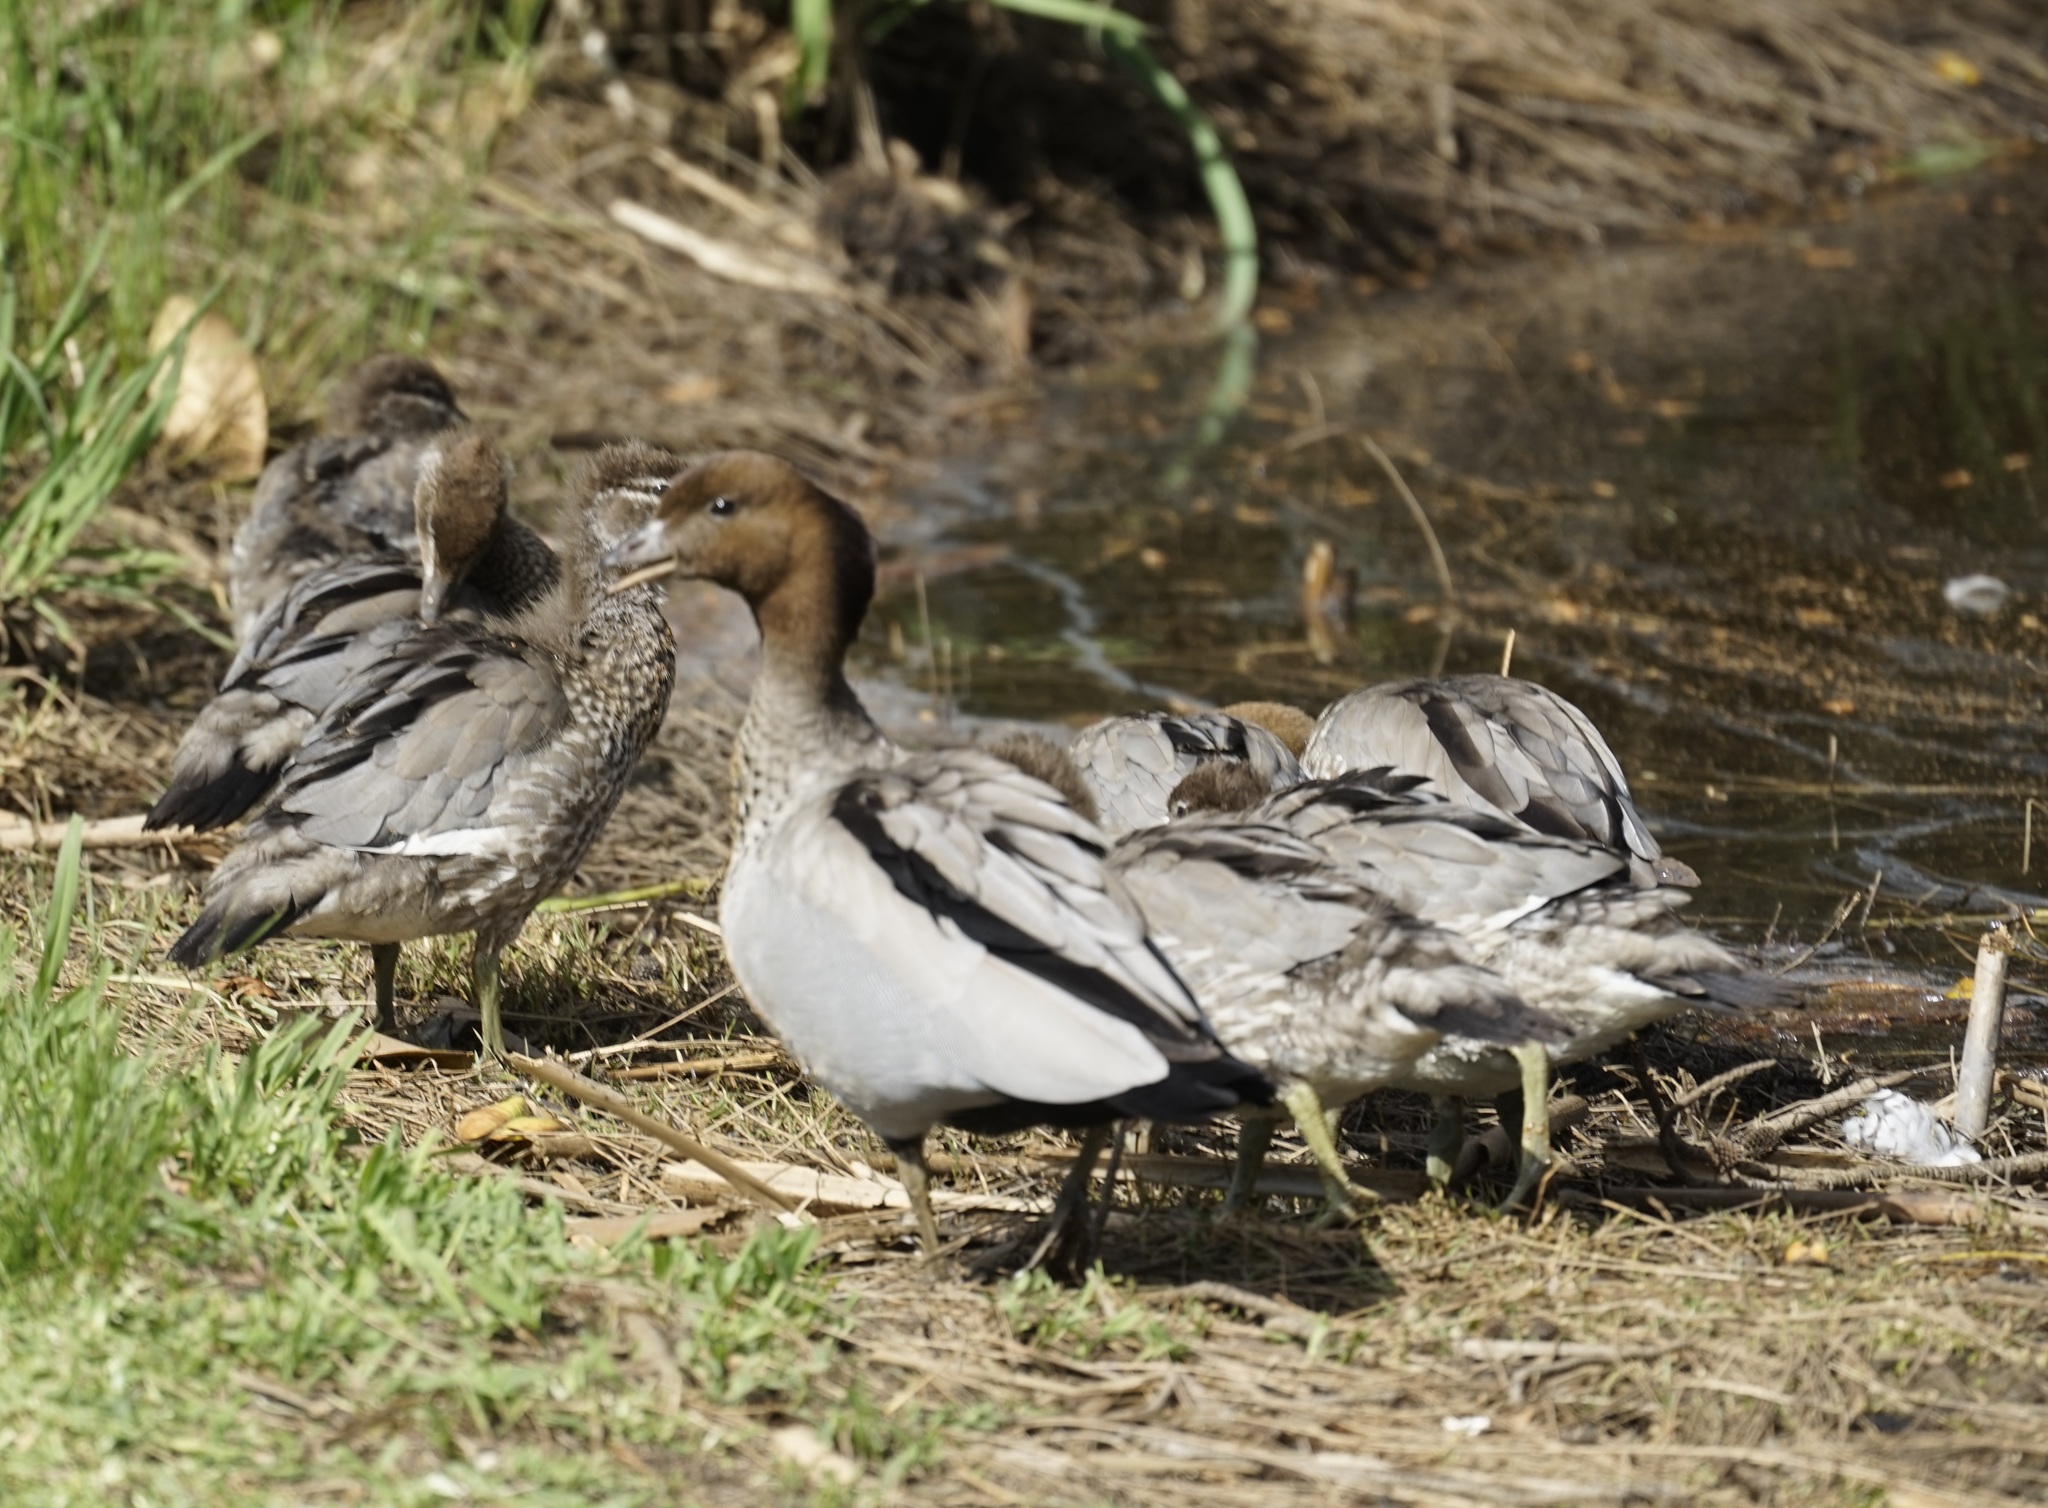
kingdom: Animalia
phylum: Chordata
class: Aves
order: Anseriformes
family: Anatidae
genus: Chenonetta
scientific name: Chenonetta jubata
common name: Maned duck
